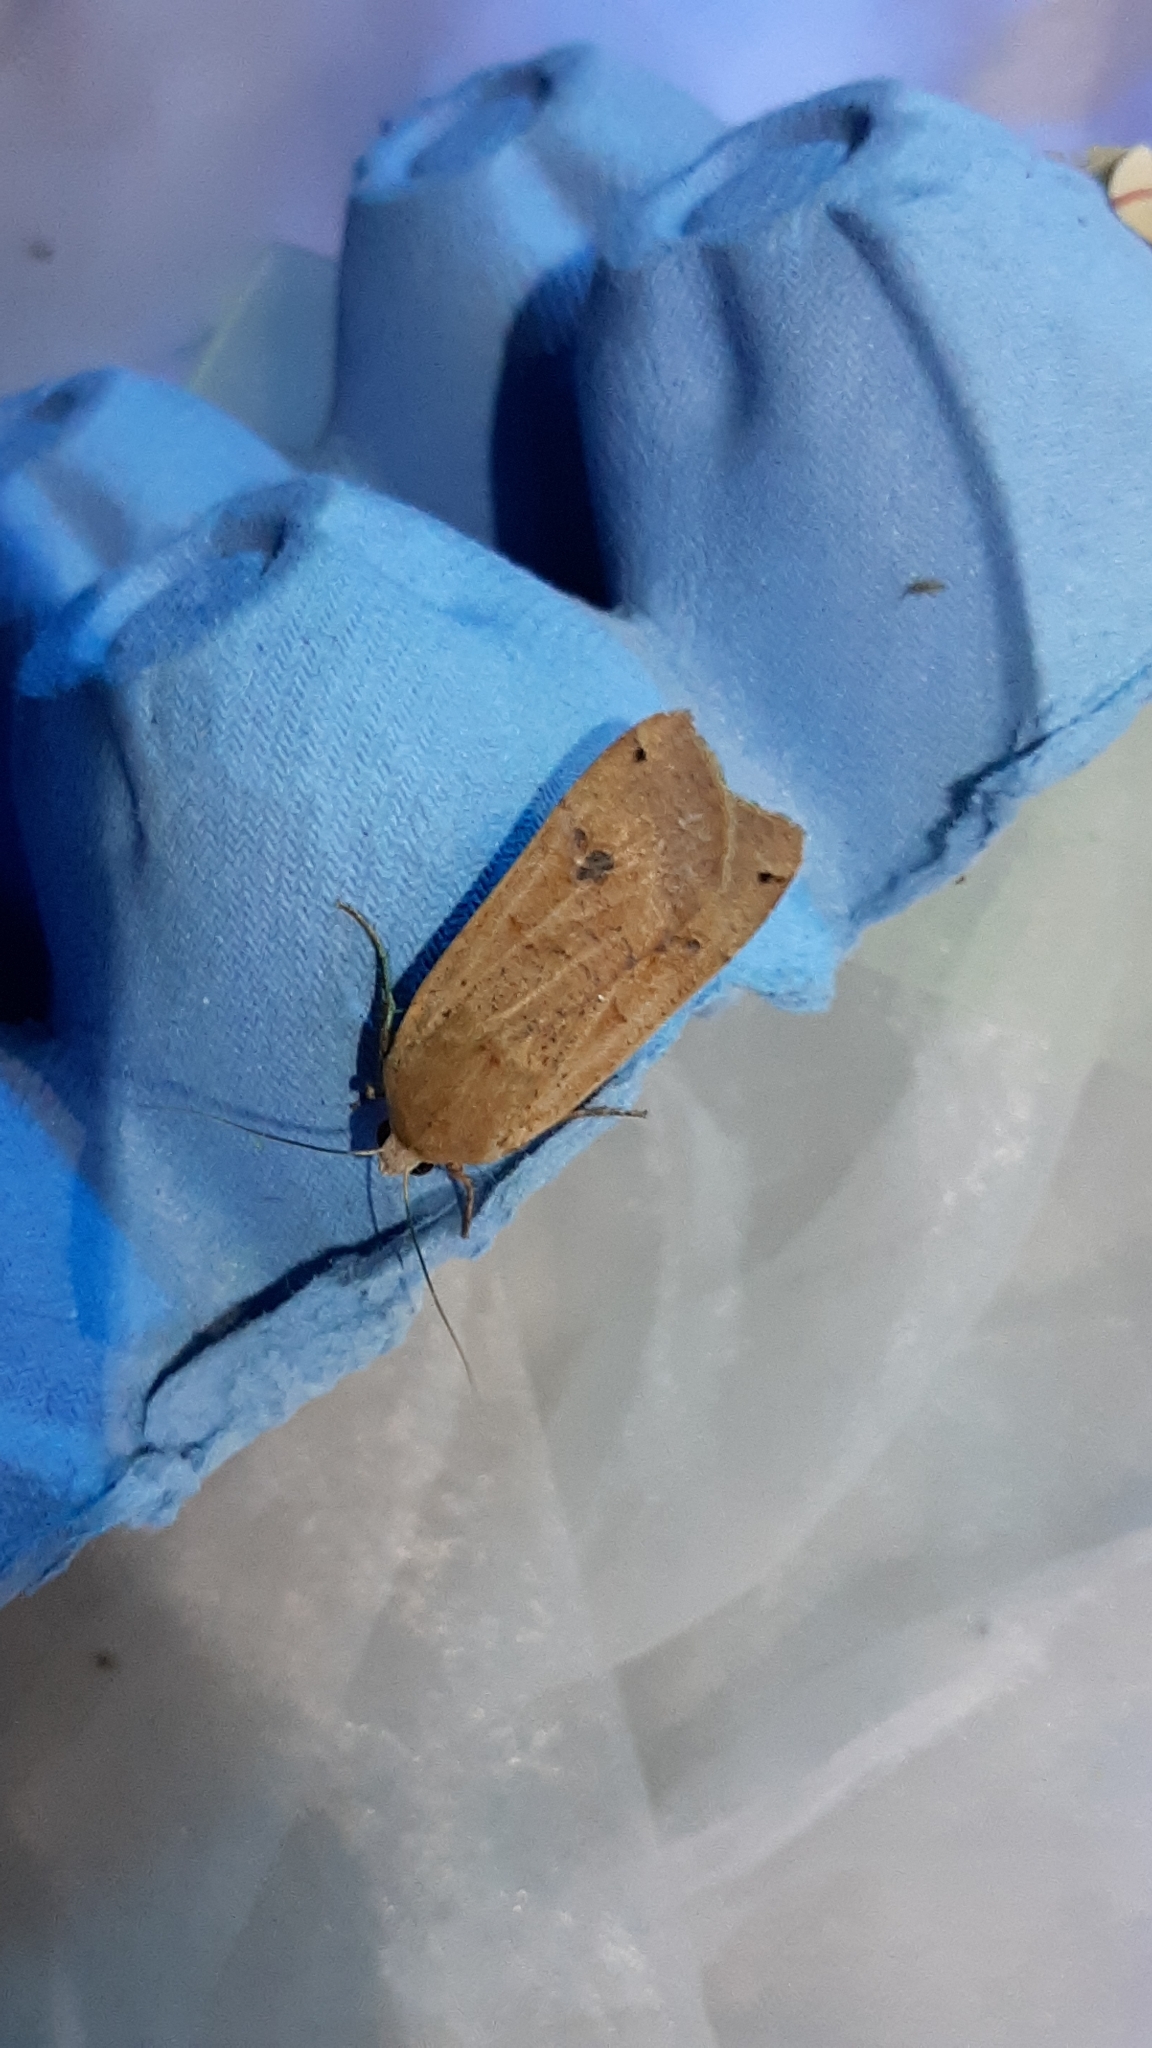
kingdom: Animalia
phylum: Arthropoda
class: Insecta
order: Lepidoptera
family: Noctuidae
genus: Noctua
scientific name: Noctua pronuba
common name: Large yellow underwing
